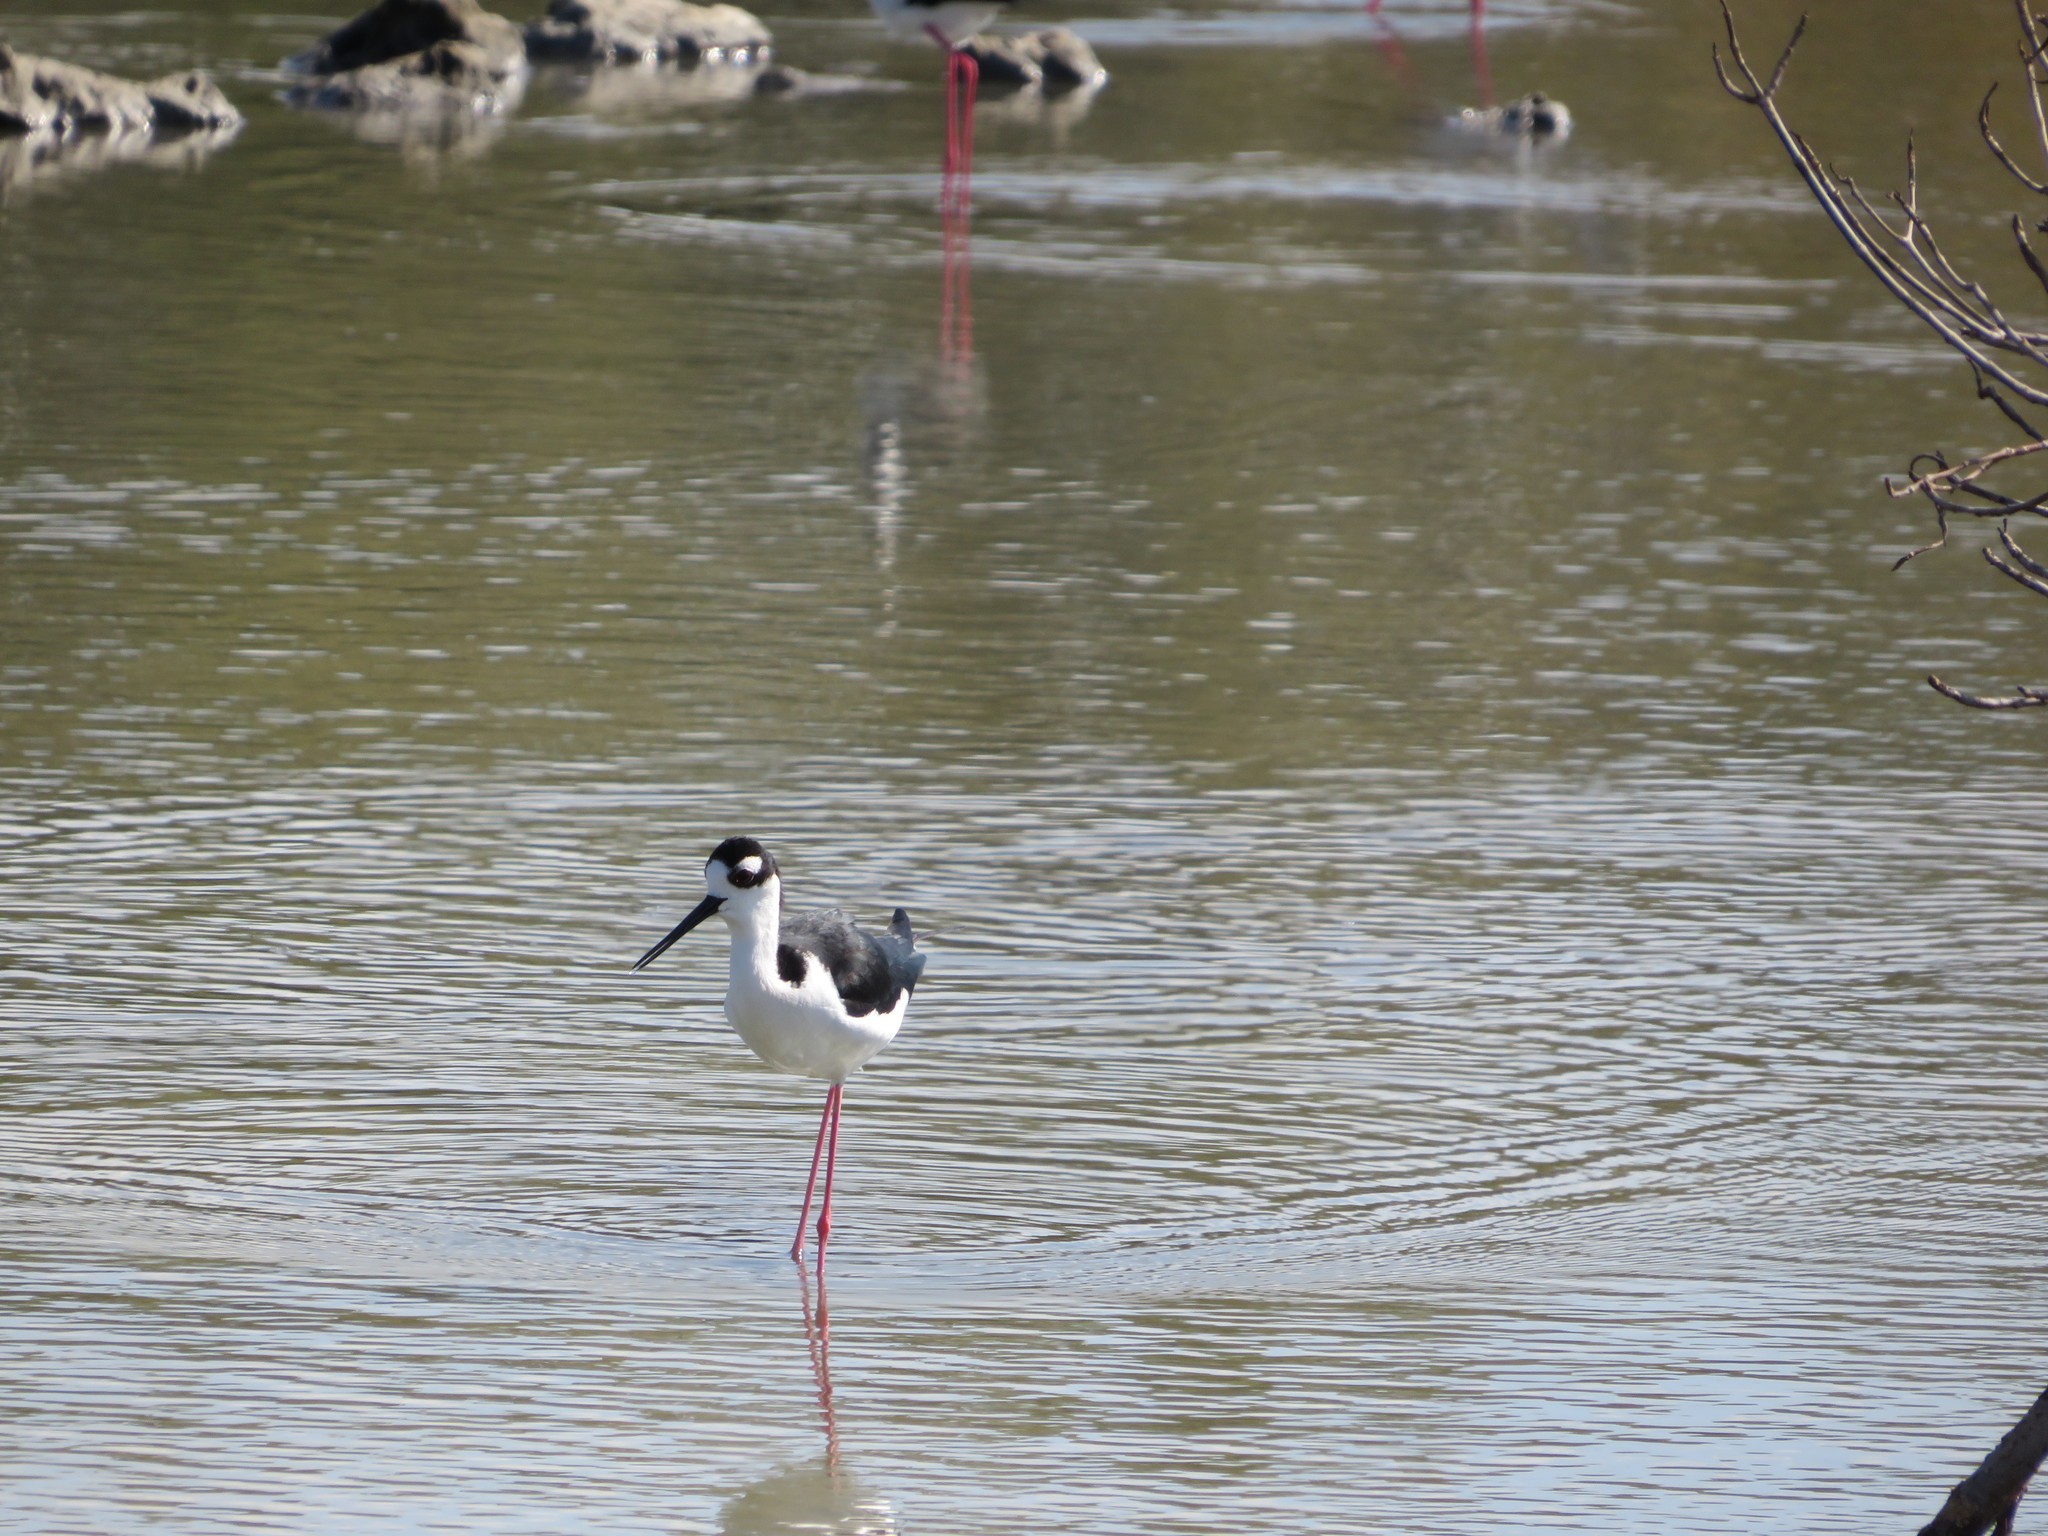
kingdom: Animalia
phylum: Chordata
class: Aves
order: Charadriiformes
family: Recurvirostridae
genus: Himantopus
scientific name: Himantopus mexicanus
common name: Black-necked stilt
